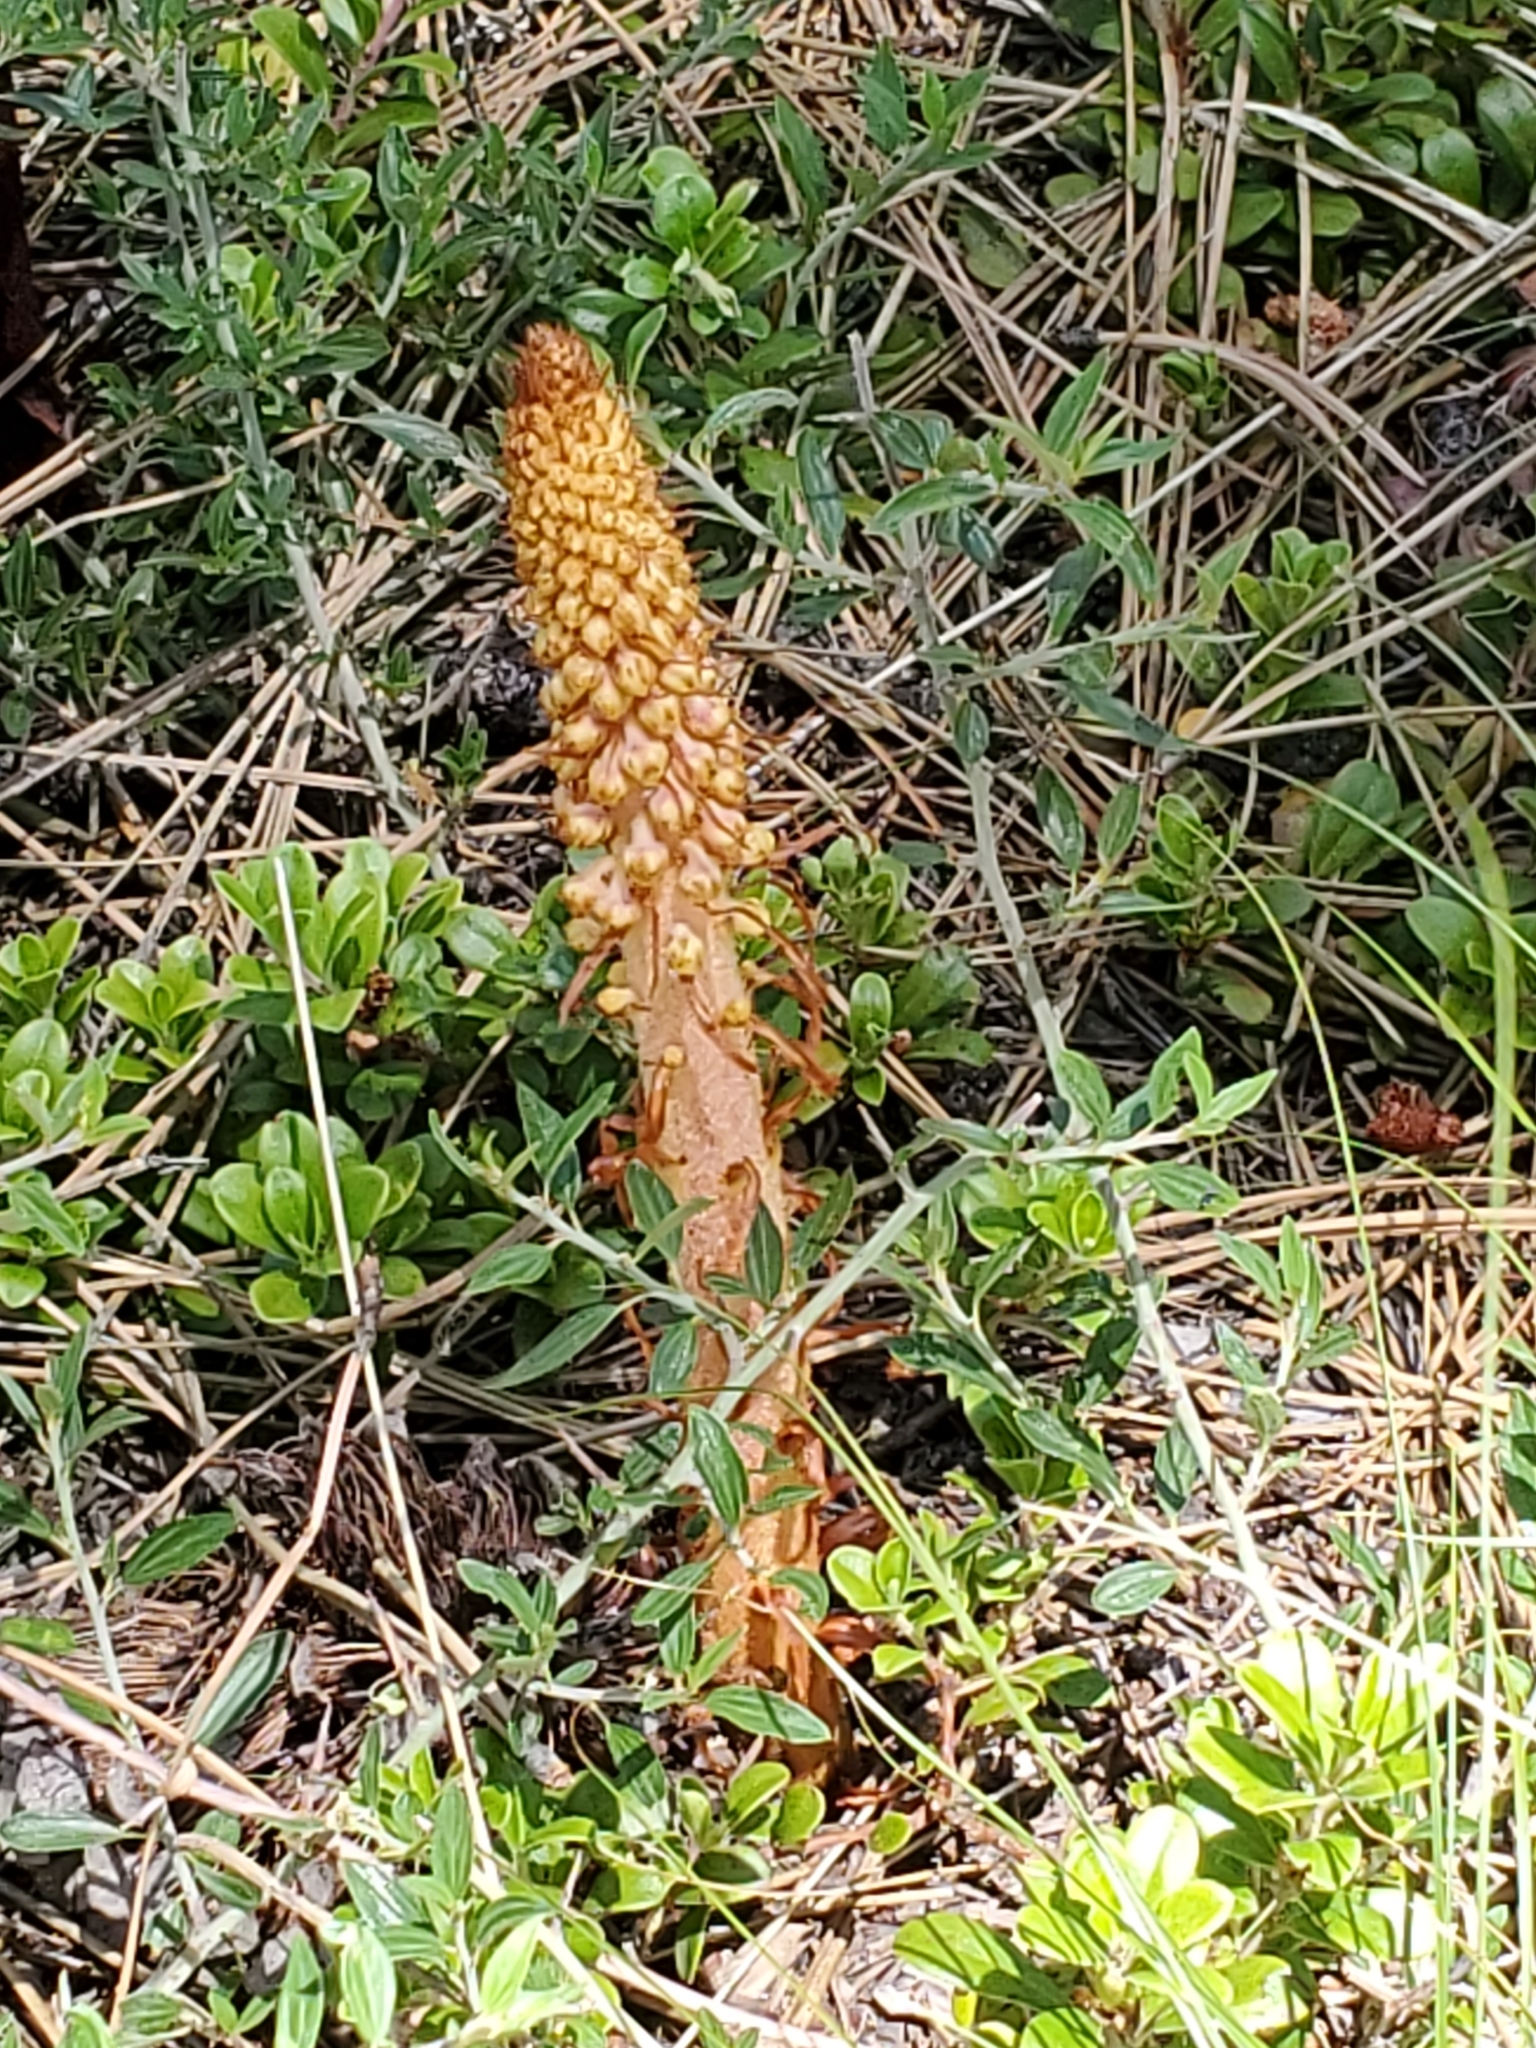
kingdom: Plantae
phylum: Tracheophyta
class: Magnoliopsida
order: Ericales
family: Ericaceae
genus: Pterospora
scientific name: Pterospora andromedea
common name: Giant bird's-nest
